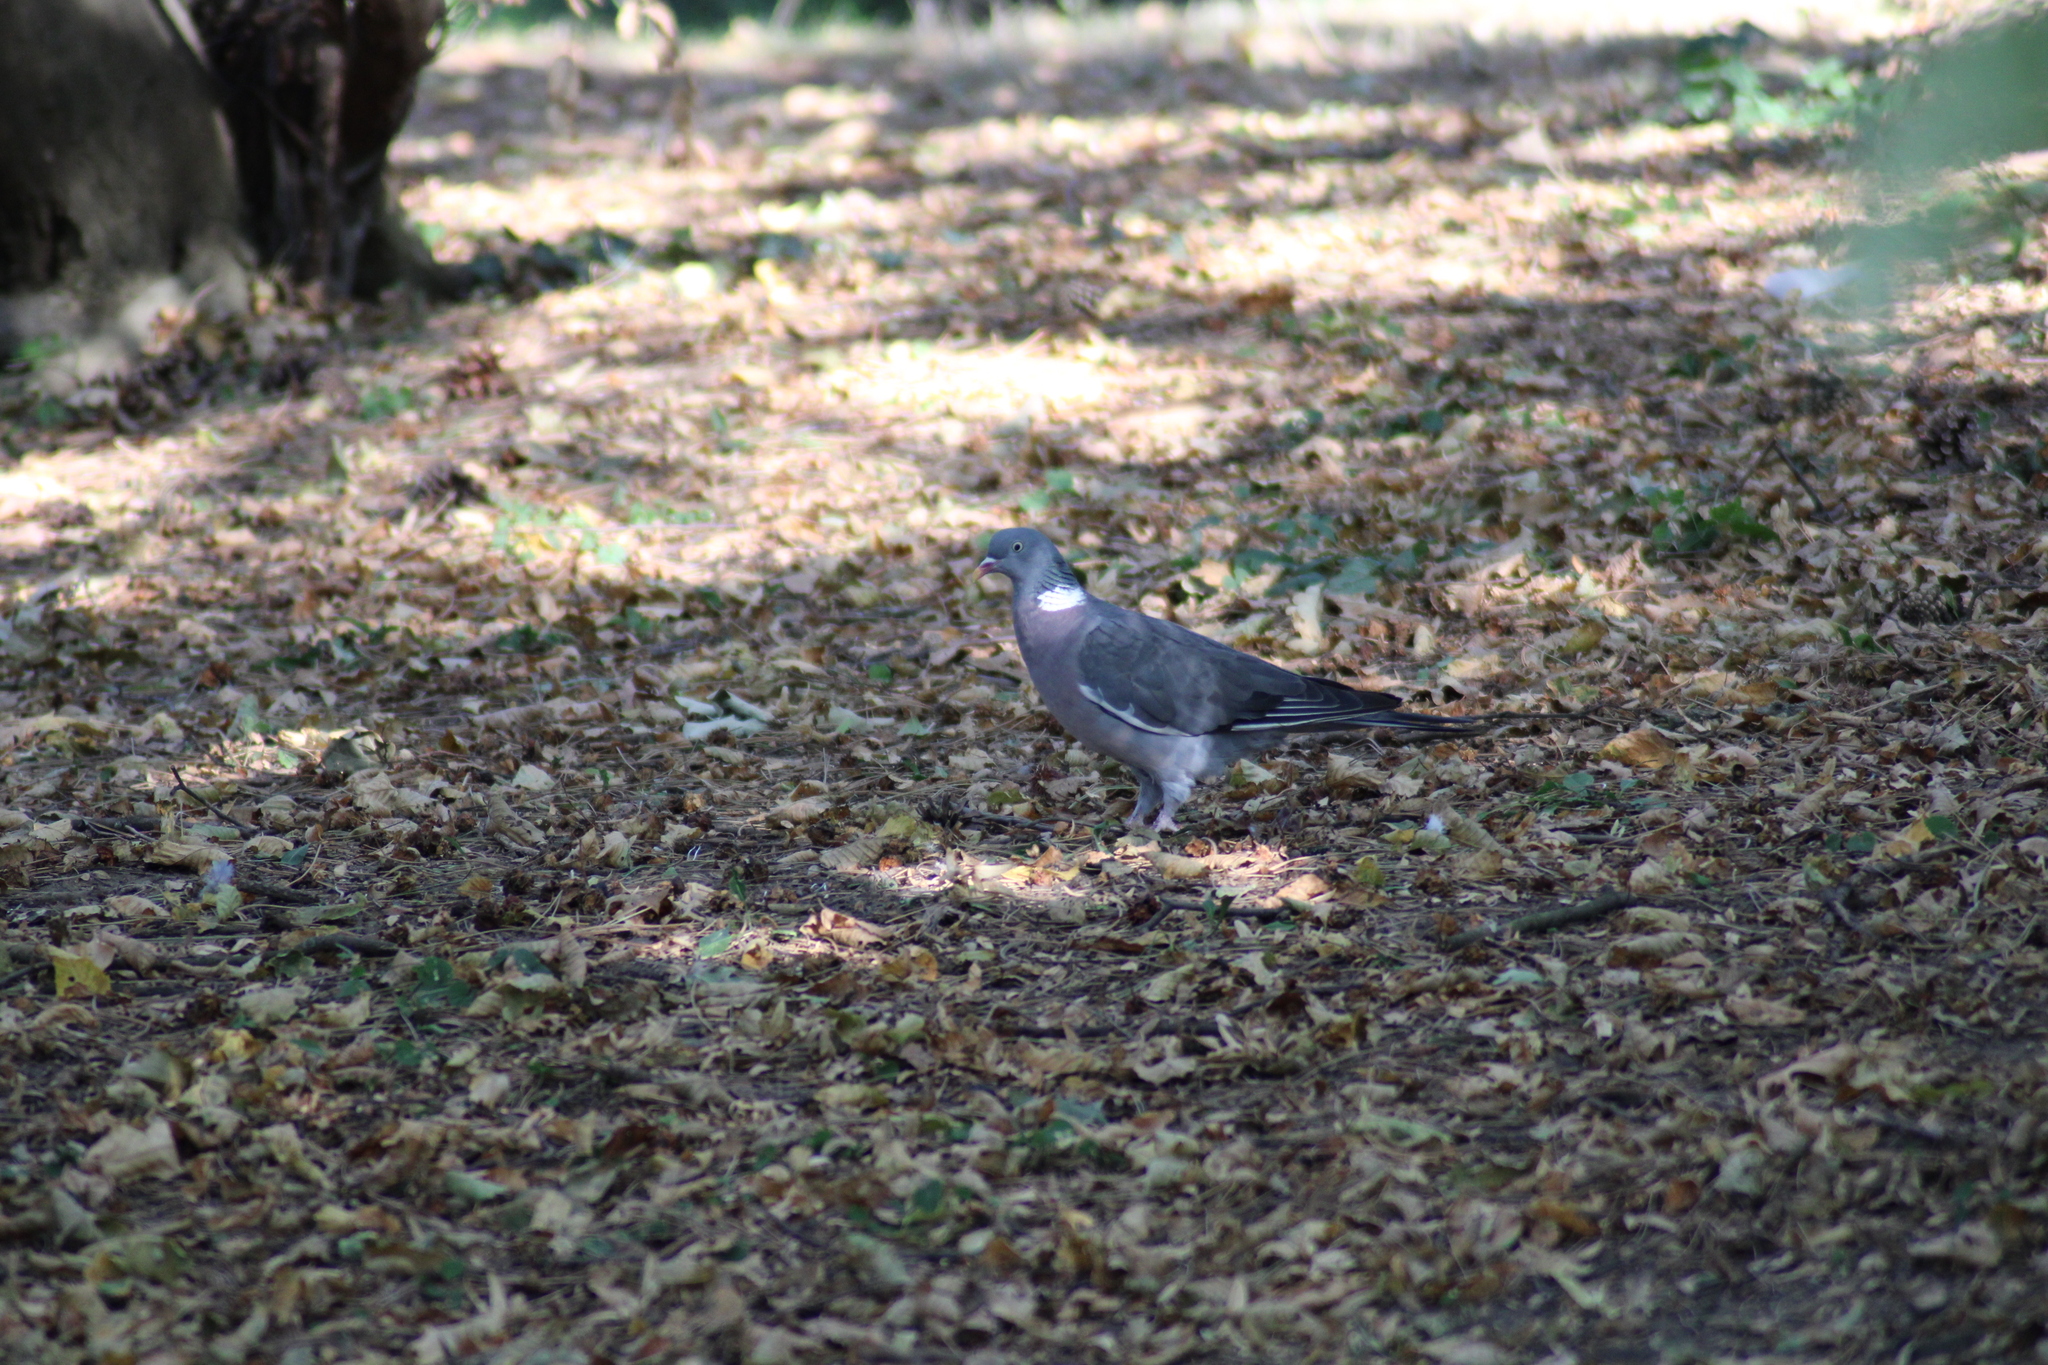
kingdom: Animalia
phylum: Chordata
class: Aves
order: Columbiformes
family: Columbidae
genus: Columba
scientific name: Columba palumbus
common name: Common wood pigeon
